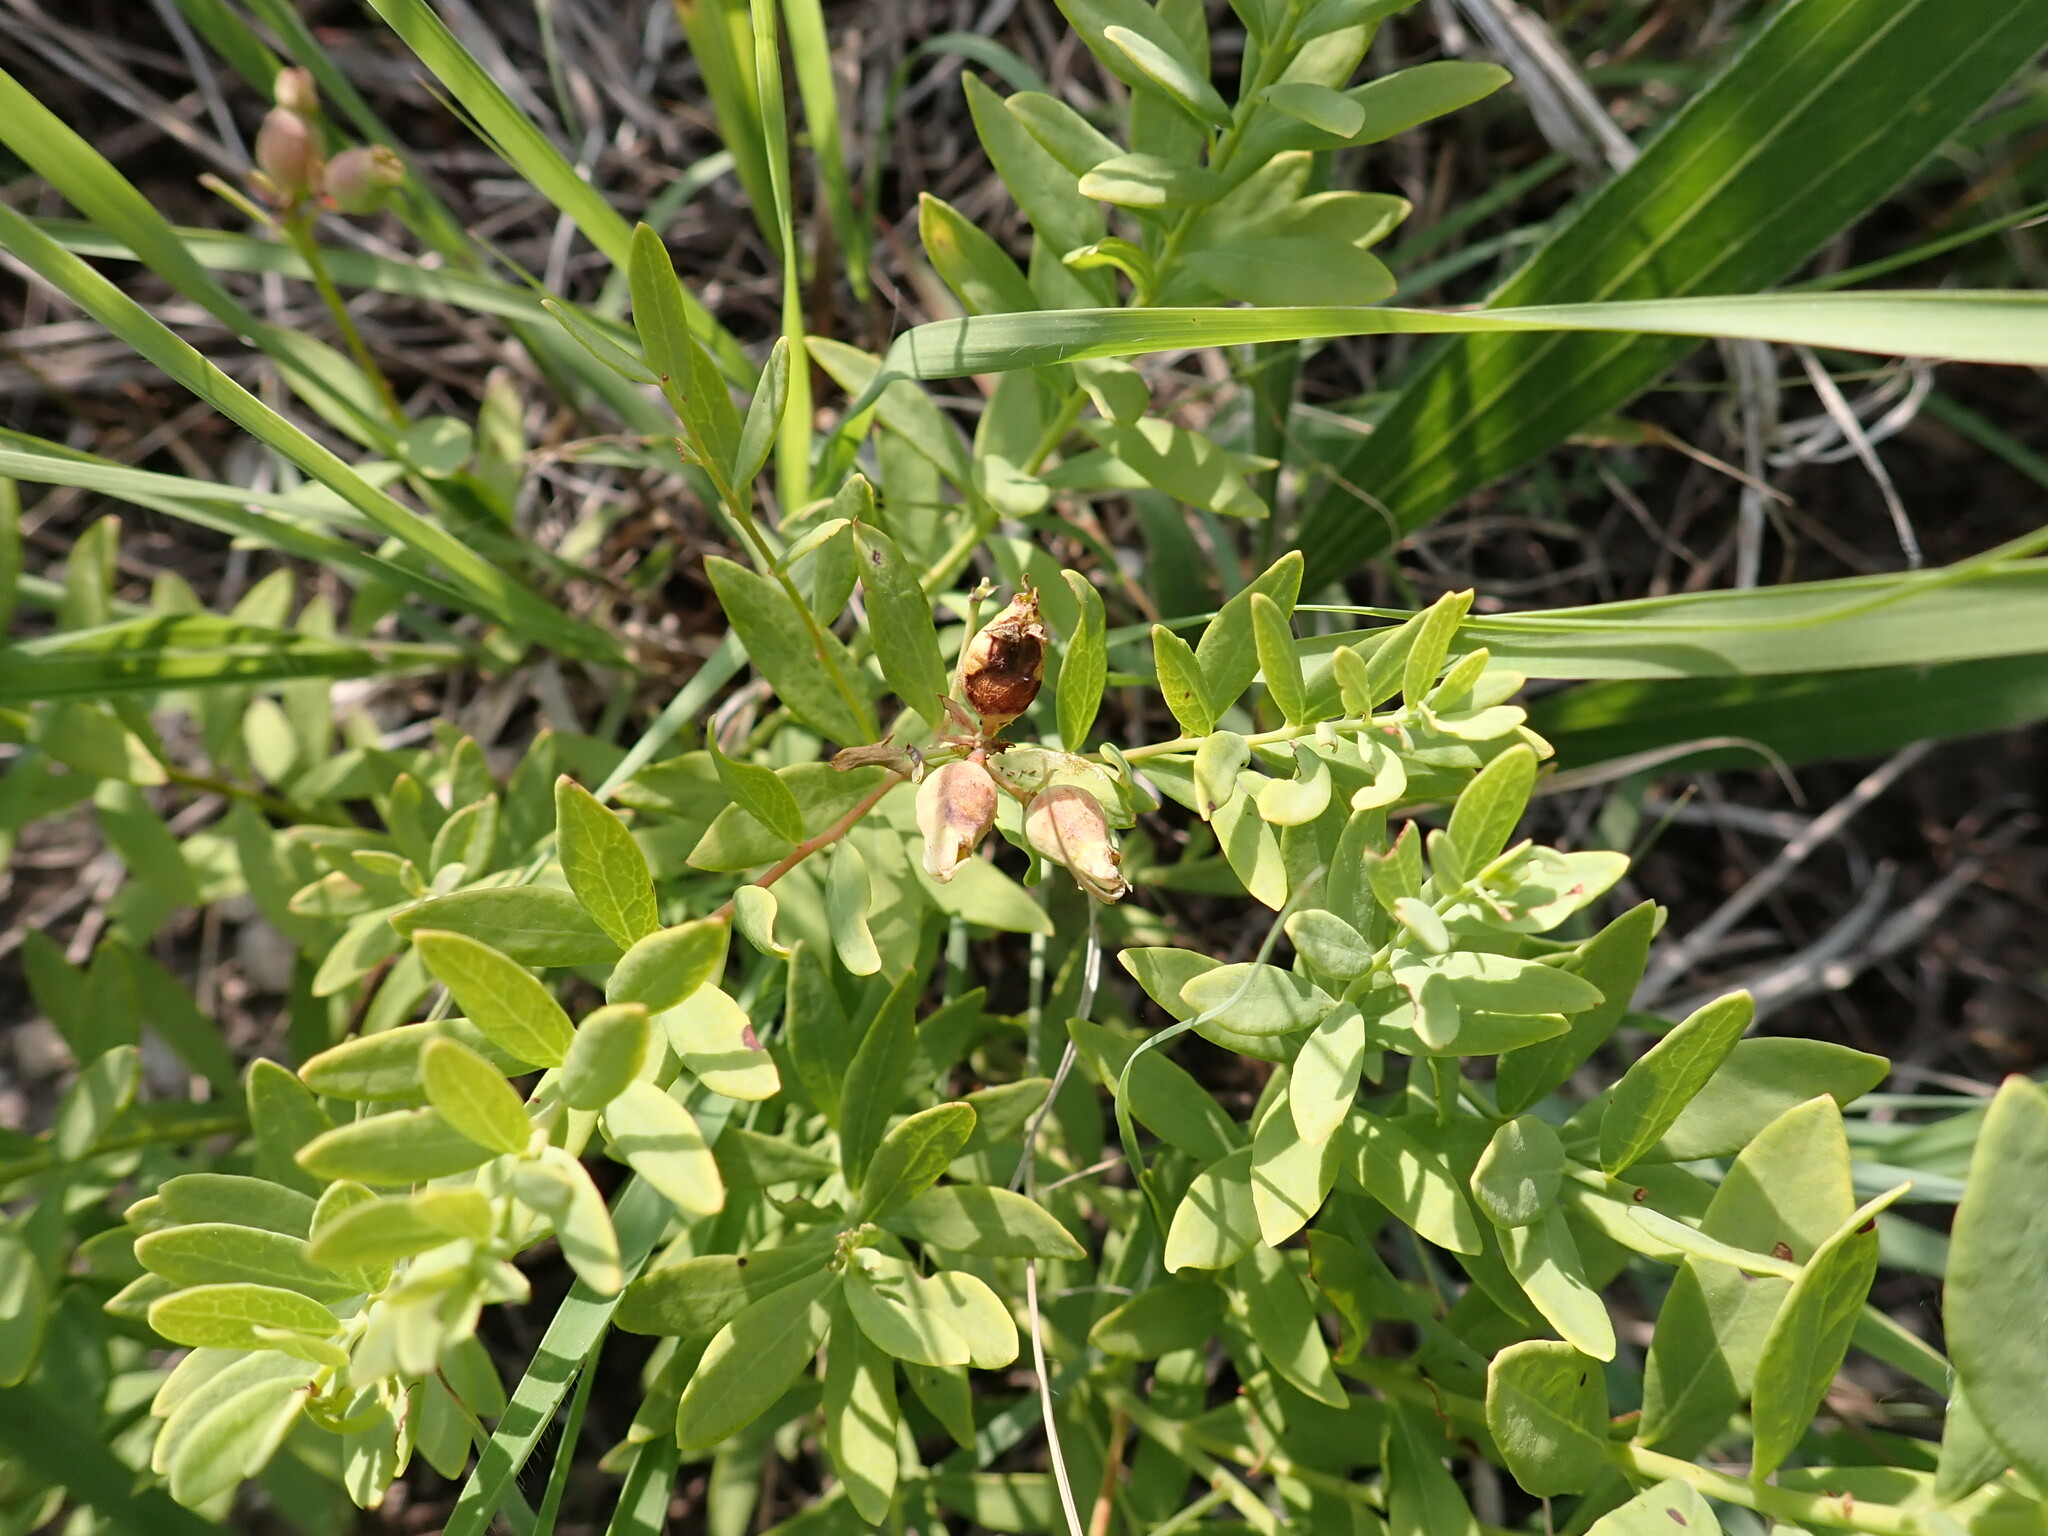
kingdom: Plantae
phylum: Tracheophyta
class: Magnoliopsida
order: Santalales
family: Comandraceae
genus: Comandra
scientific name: Comandra umbellata
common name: Bastard toadflax
